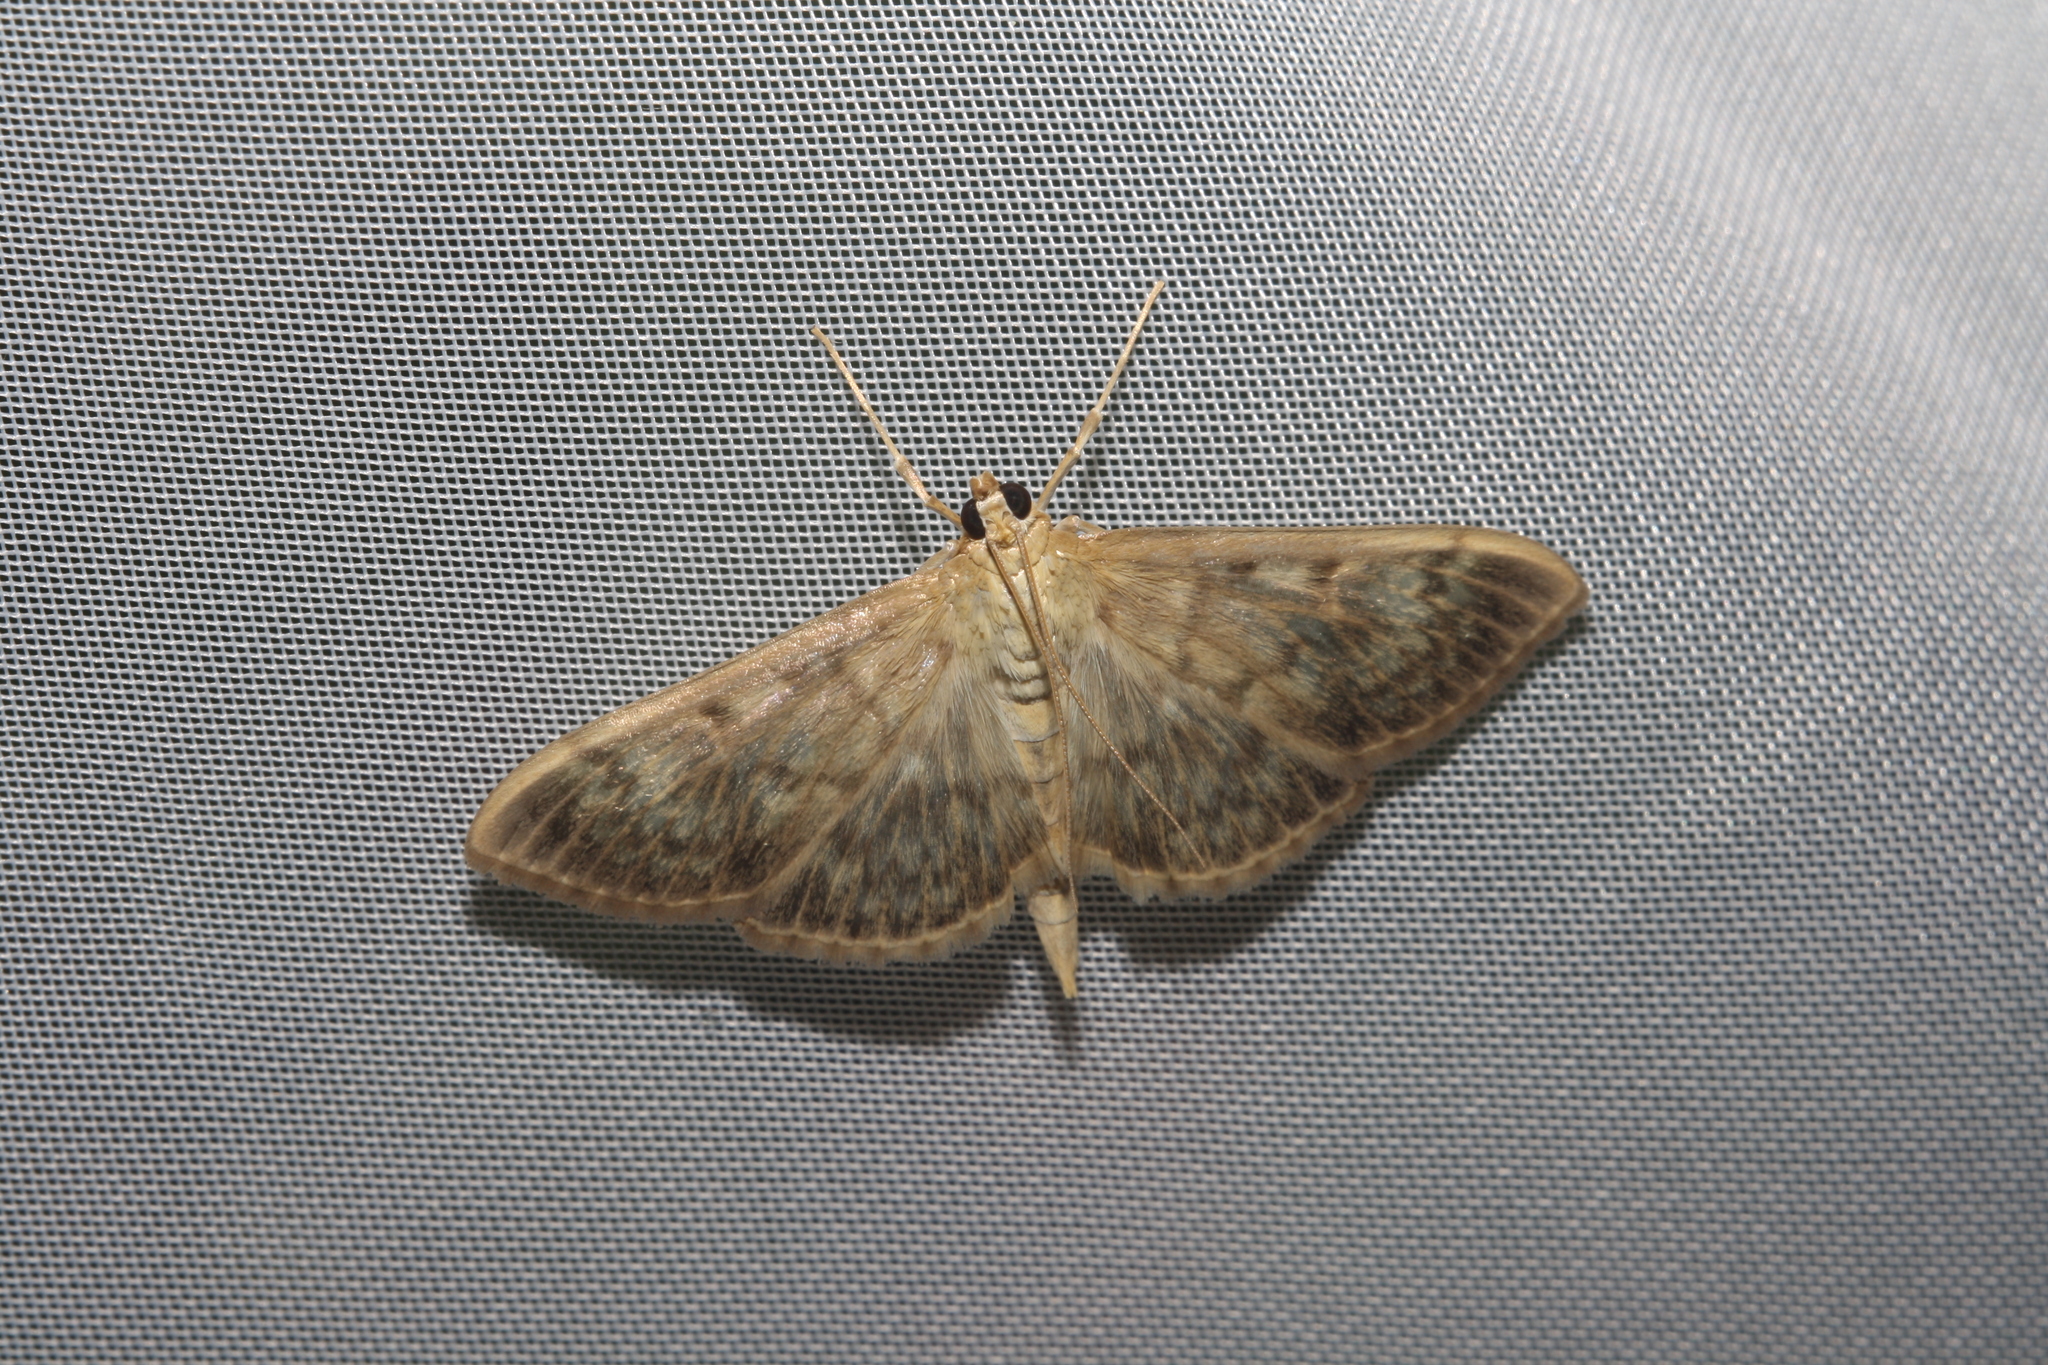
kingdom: Animalia
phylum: Arthropoda
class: Insecta
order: Lepidoptera
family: Crambidae
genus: Patania
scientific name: Patania ruralis
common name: Mother of pearl
